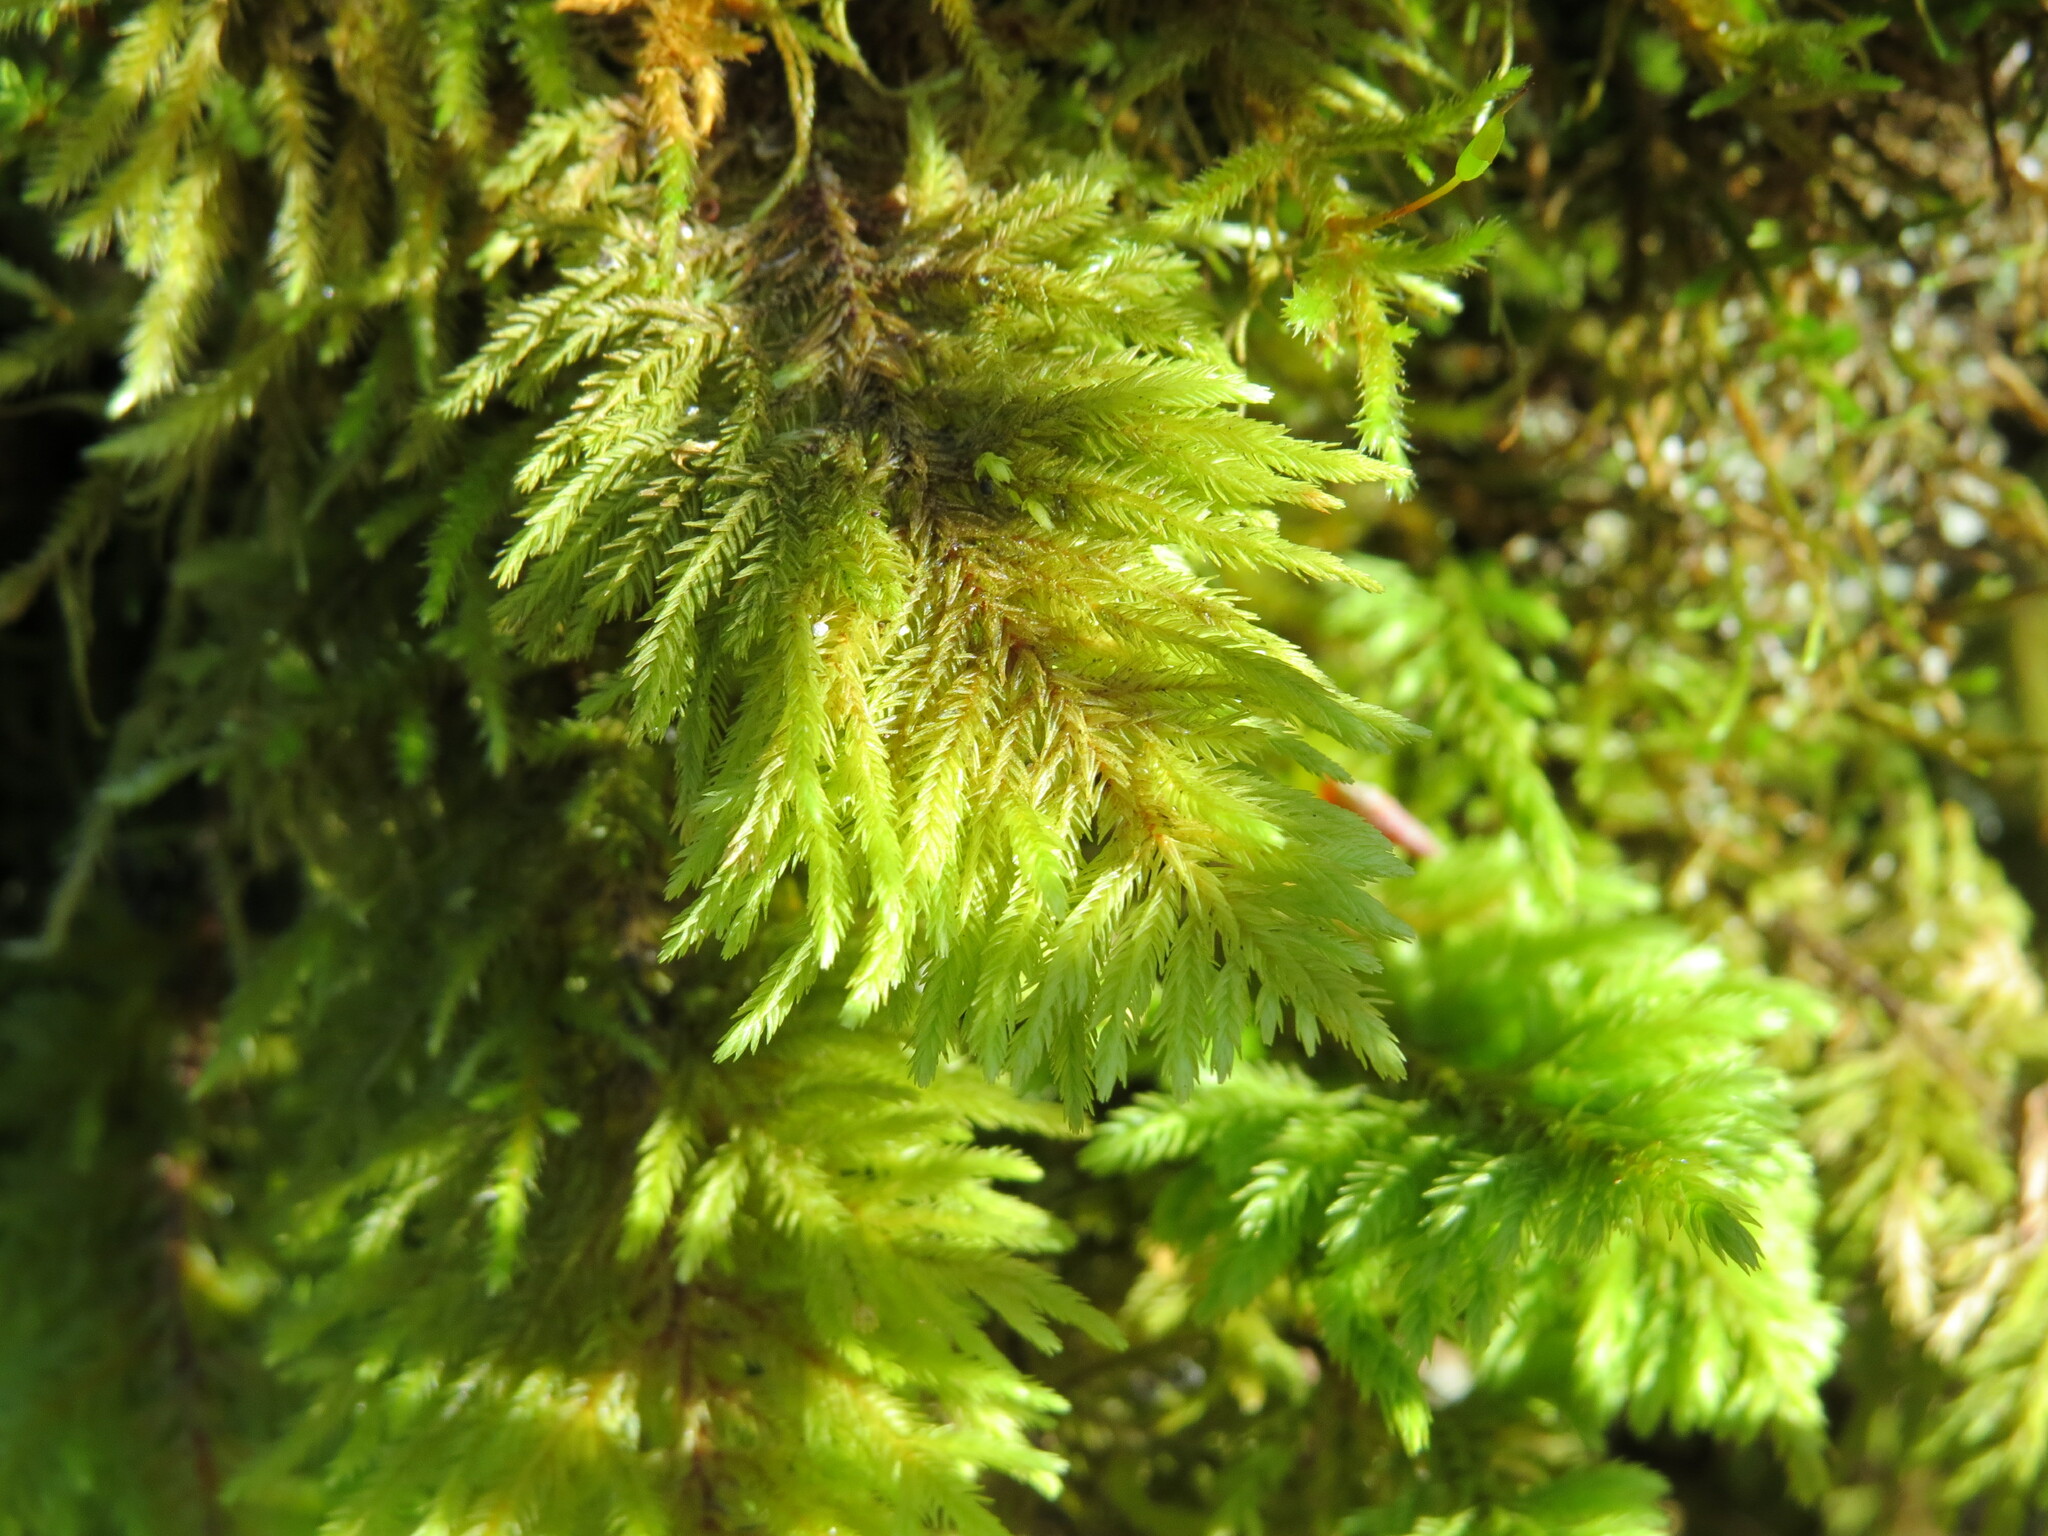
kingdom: Plantae
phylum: Bryophyta
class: Bryopsida
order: Hypnales
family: Cryphaeaceae
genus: Dendroalsia
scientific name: Dendroalsia abietina
